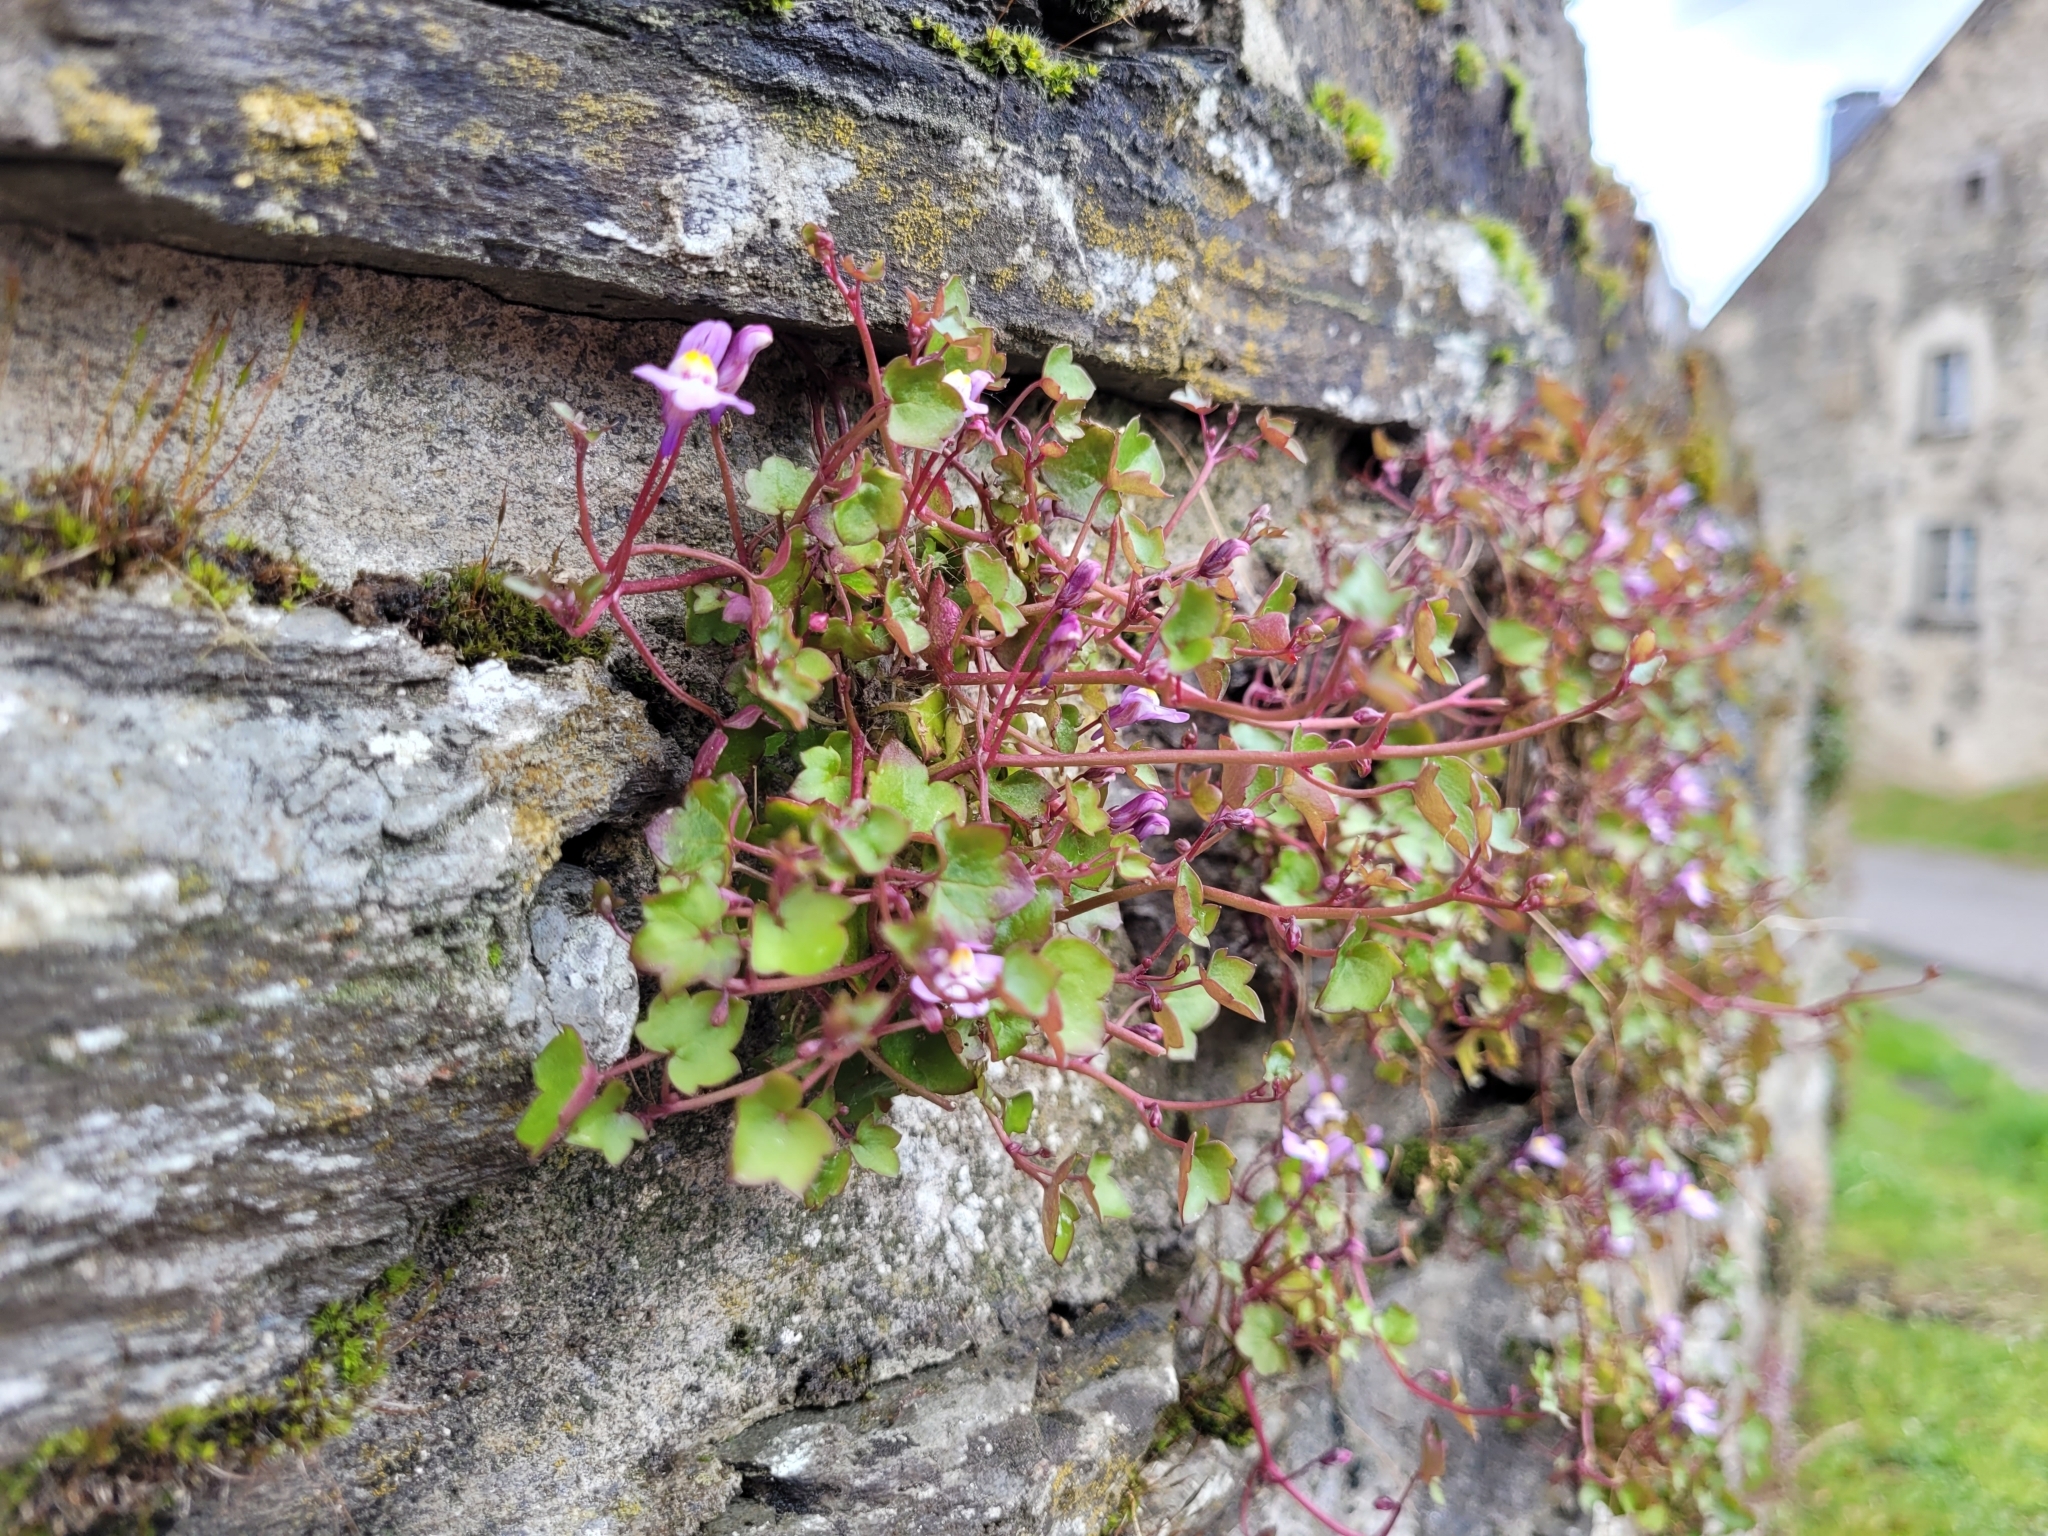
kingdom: Plantae
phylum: Tracheophyta
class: Magnoliopsida
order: Lamiales
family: Plantaginaceae
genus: Cymbalaria
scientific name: Cymbalaria muralis
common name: Ivy-leaved toadflax
